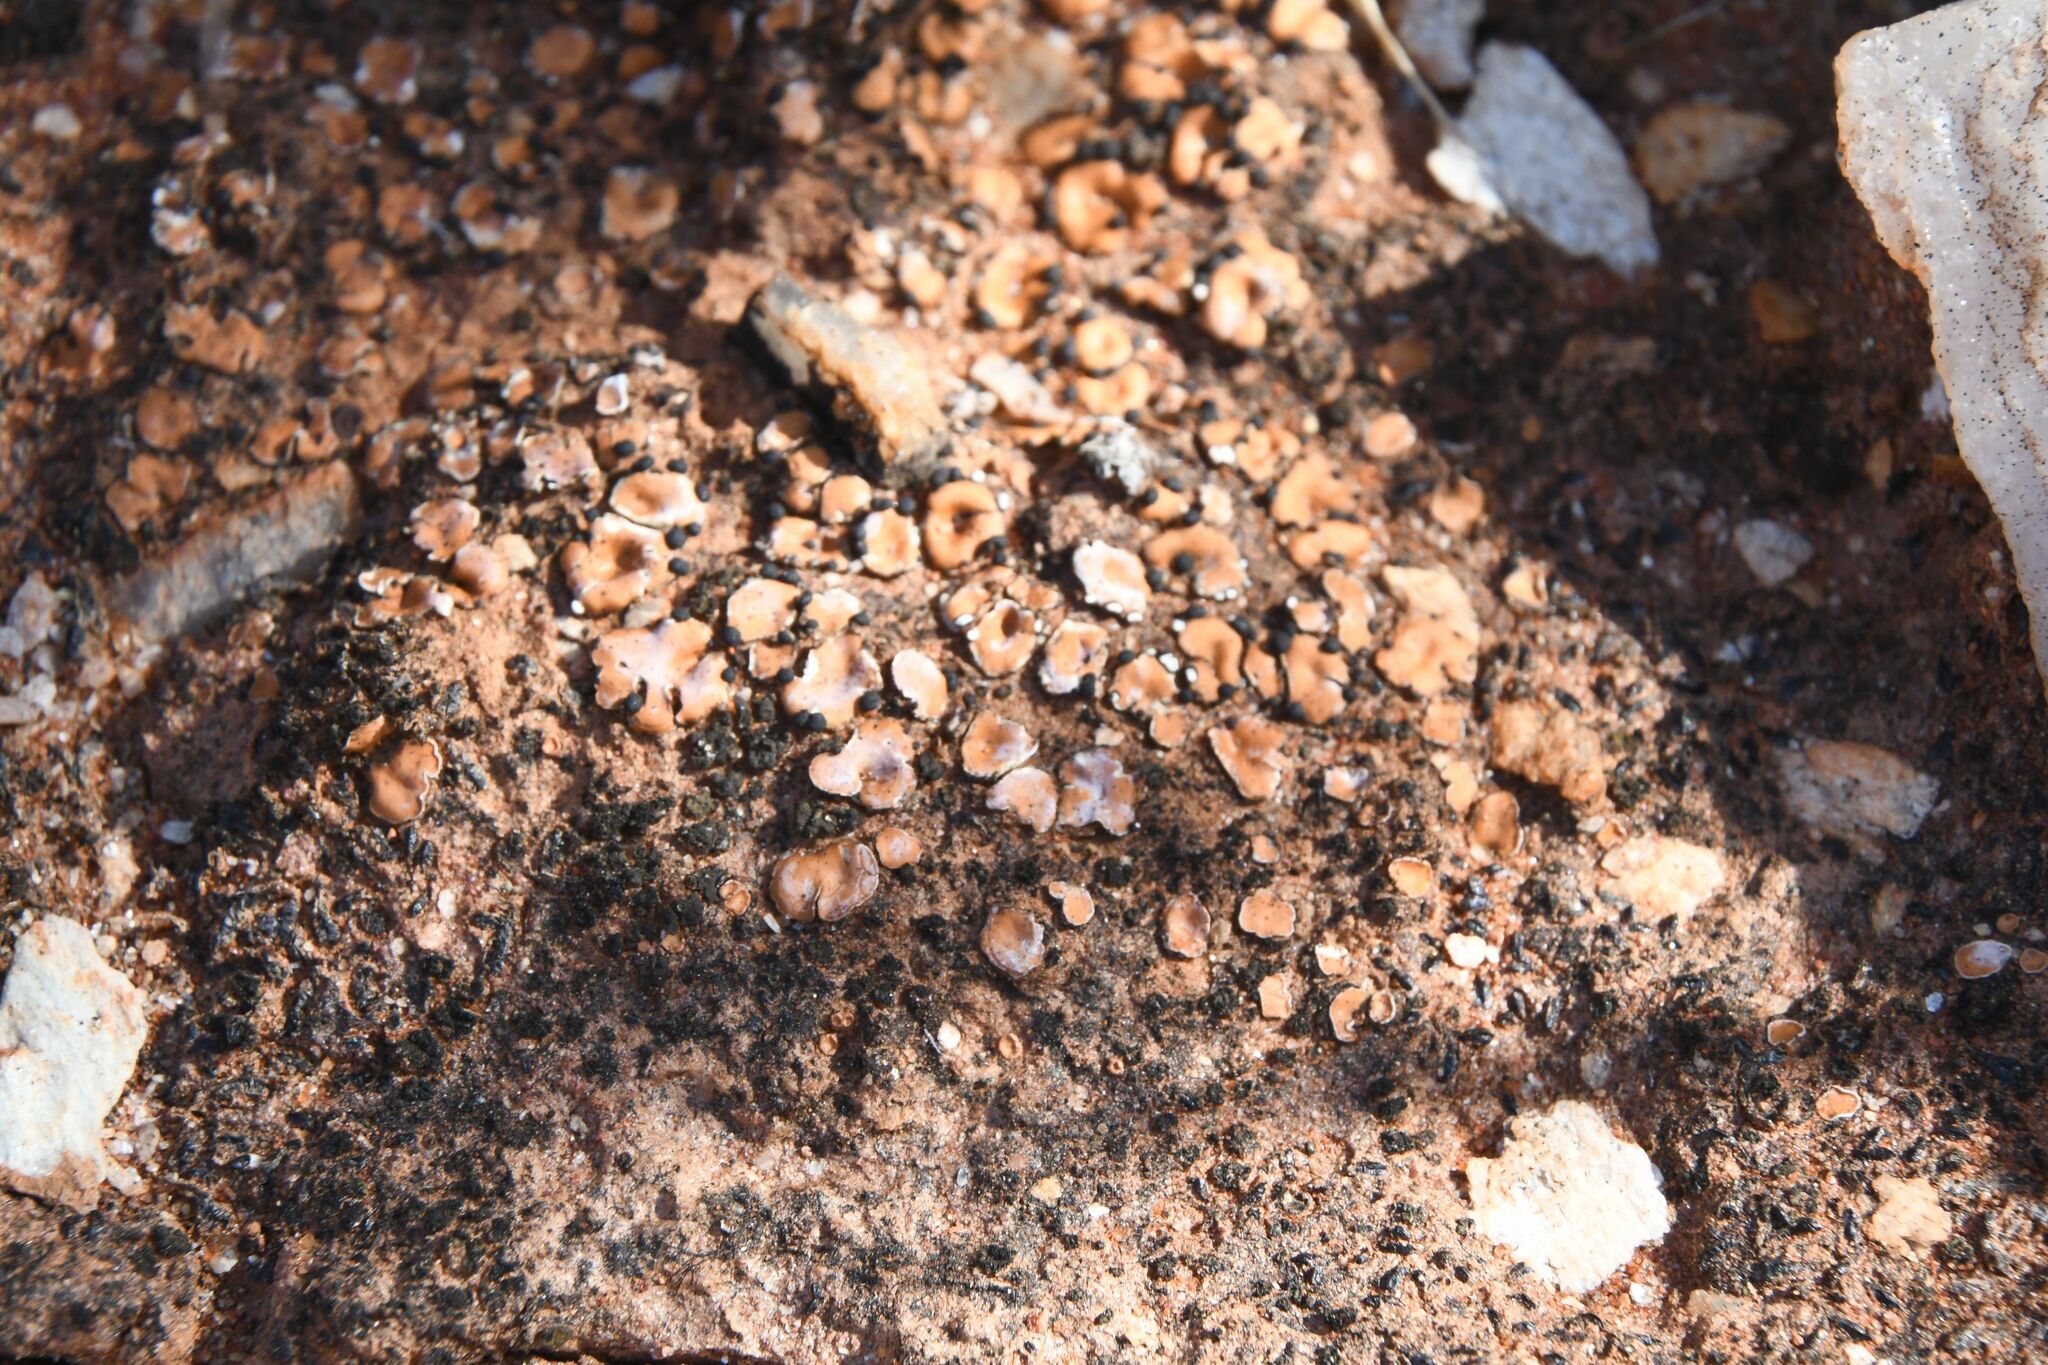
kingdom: Fungi
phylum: Ascomycota
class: Lecanoromycetes
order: Lecanorales
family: Psoraceae
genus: Psora
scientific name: Psora decipiens
